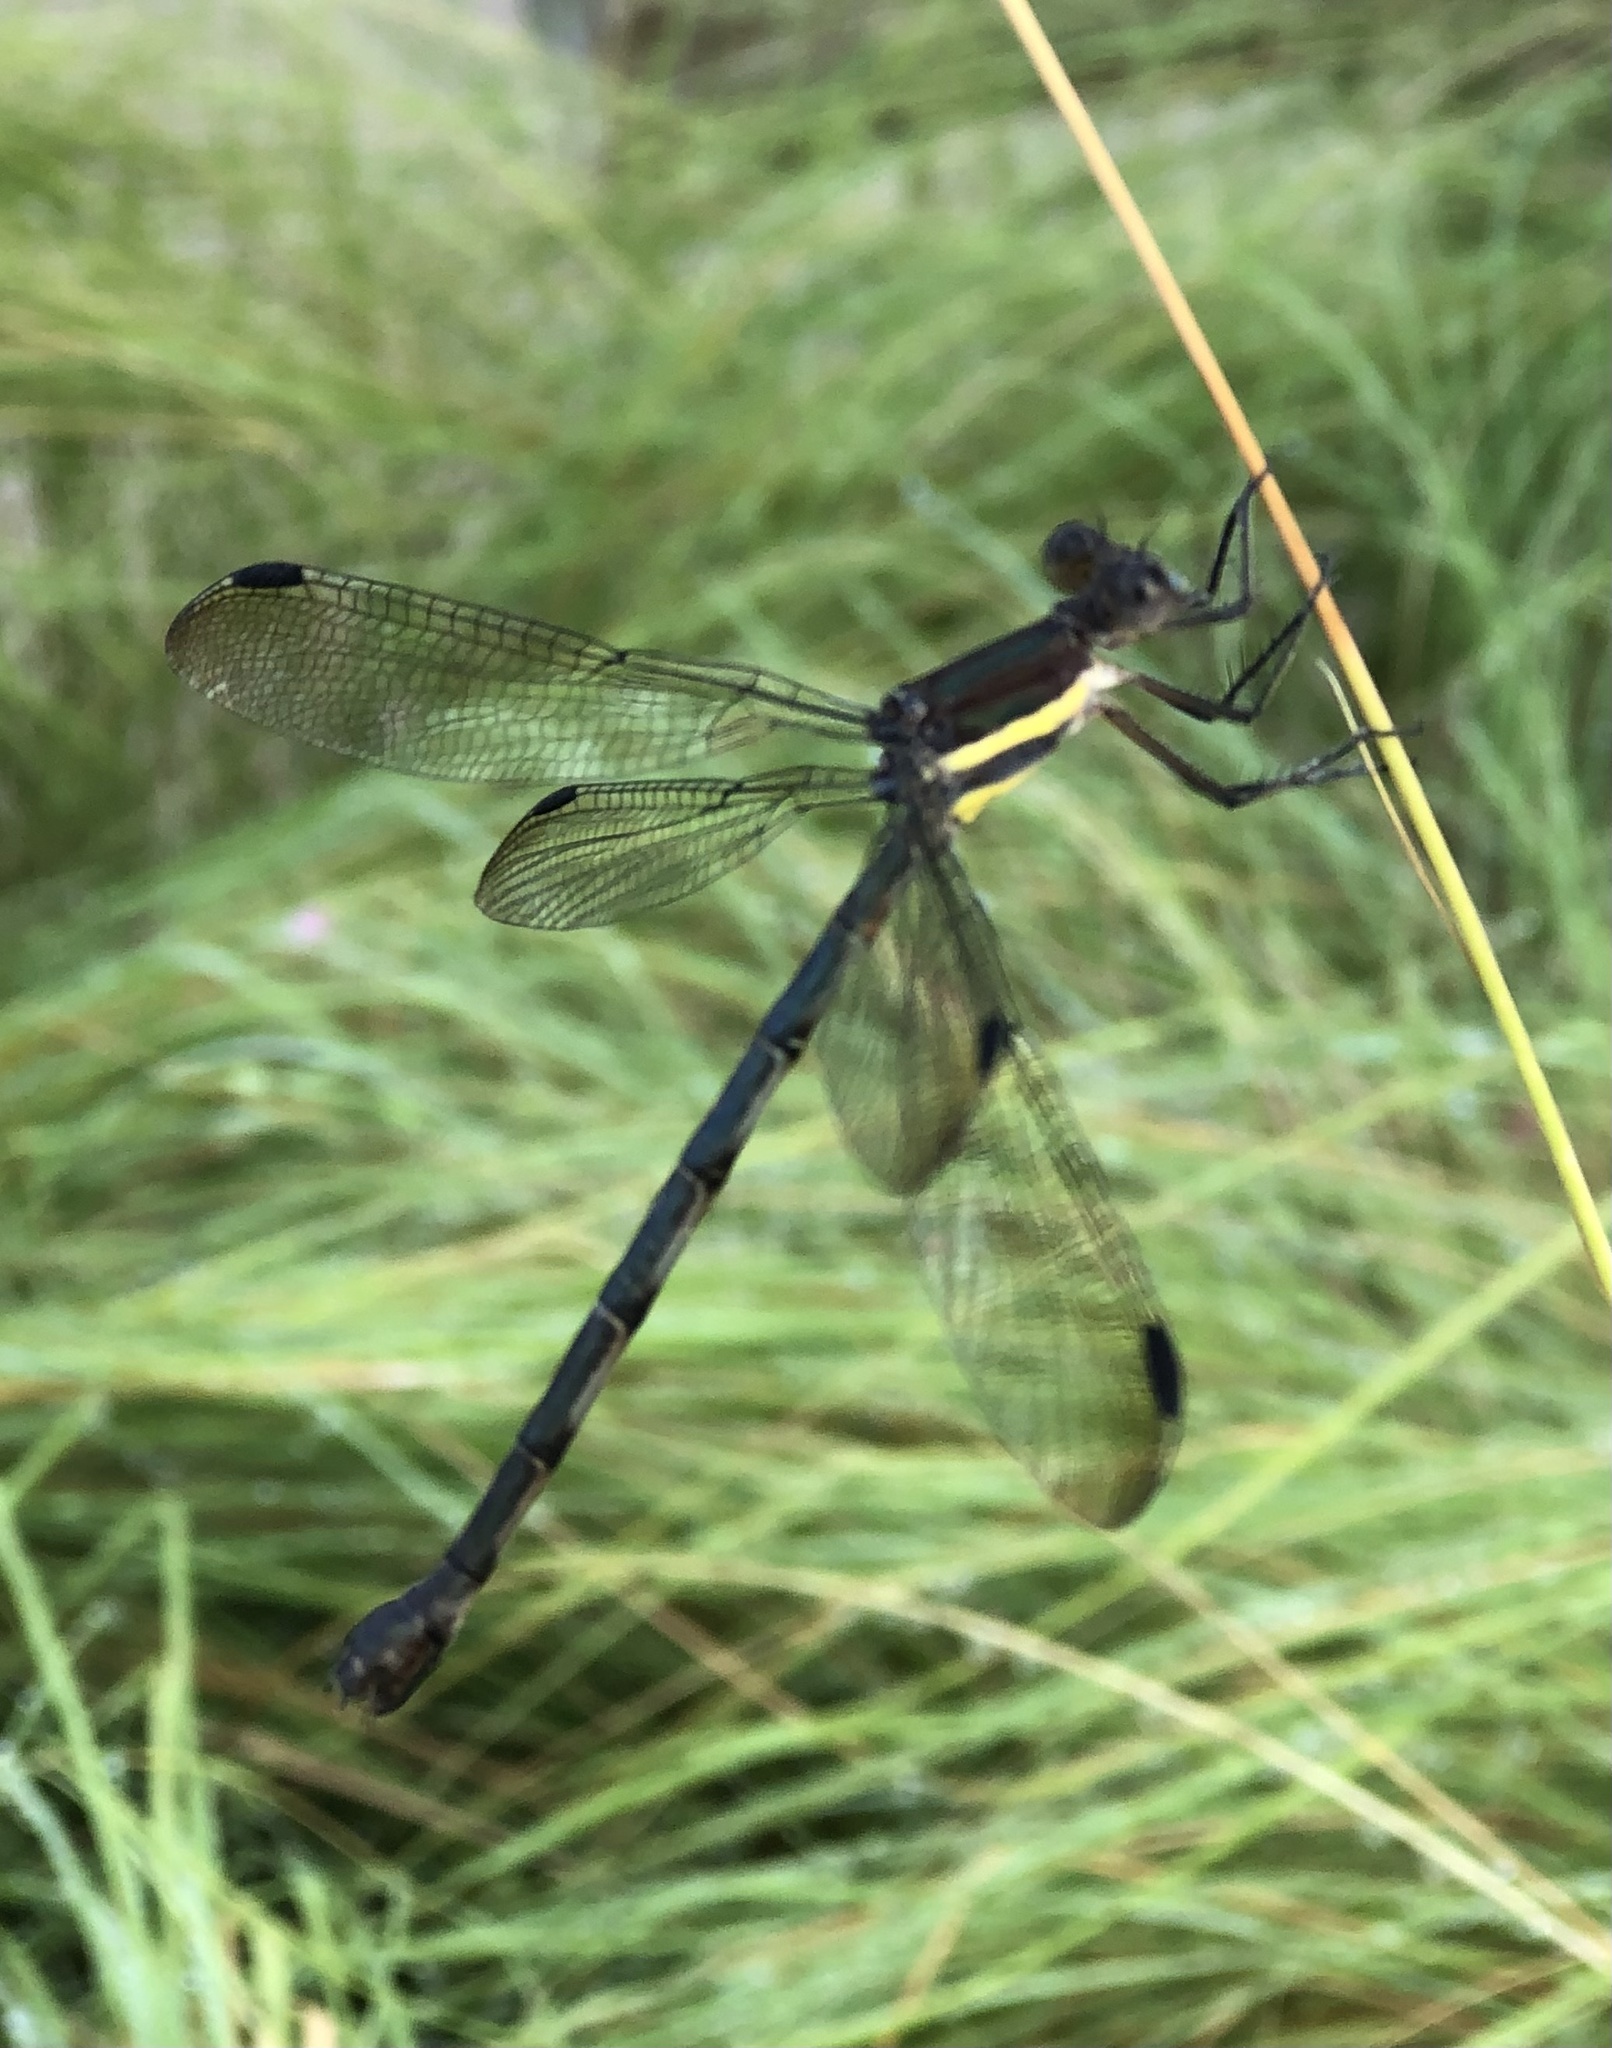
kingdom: Animalia
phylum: Arthropoda
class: Insecta
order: Odonata
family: Lestidae
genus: Archilestes
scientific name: Archilestes grandis
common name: Great spreadwing
